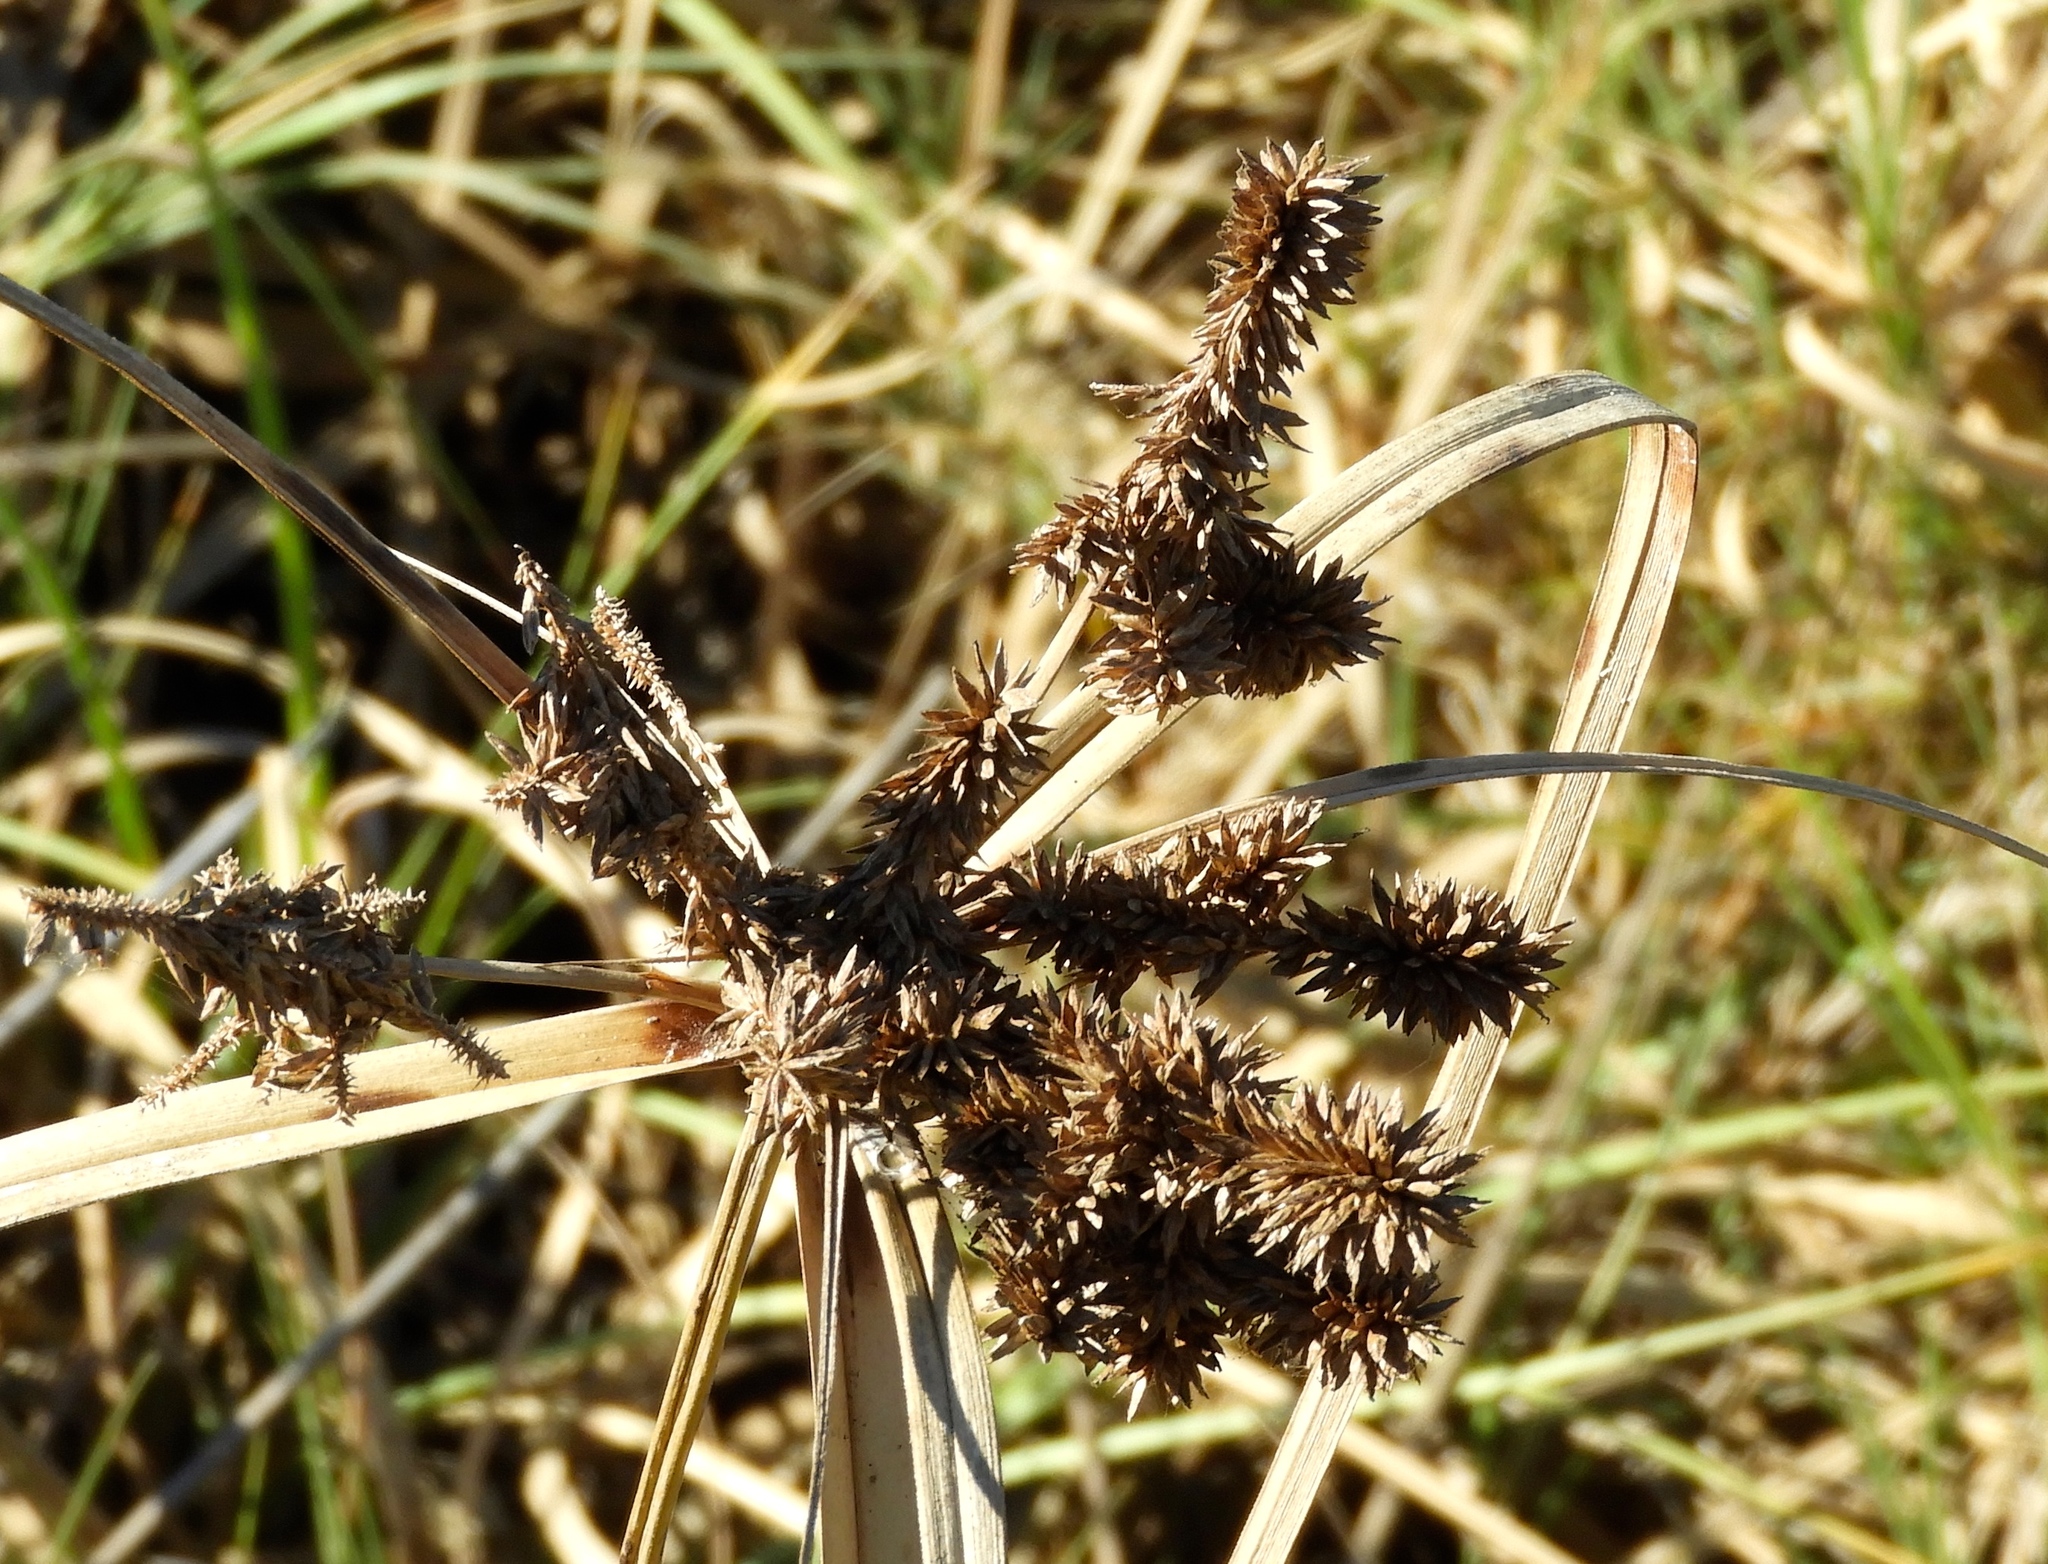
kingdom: Plantae
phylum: Tracheophyta
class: Liliopsida
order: Poales
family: Cyperaceae
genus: Cyperus
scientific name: Cyperus ligularis
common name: Swamp flat sedge
